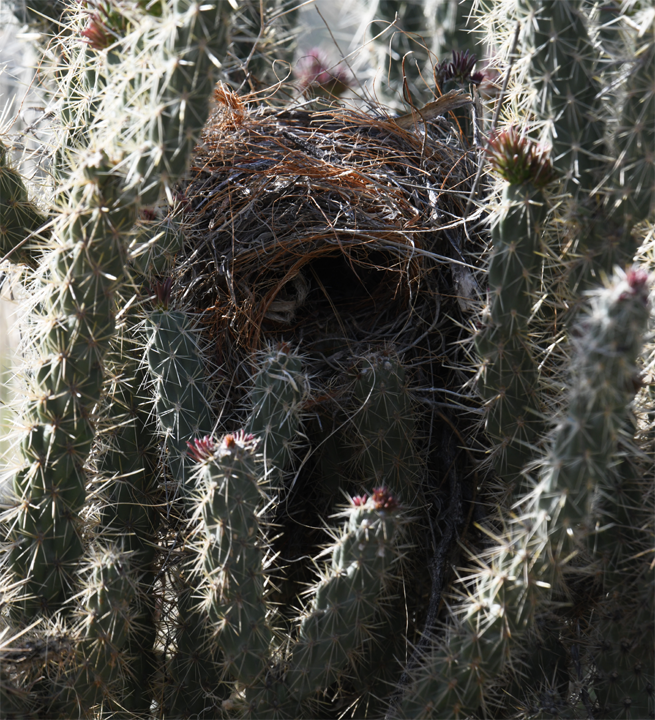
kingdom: Animalia
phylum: Chordata
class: Aves
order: Passeriformes
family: Troglodytidae
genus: Campylorhynchus
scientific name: Campylorhynchus brunneicapillus
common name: Cactus wren
